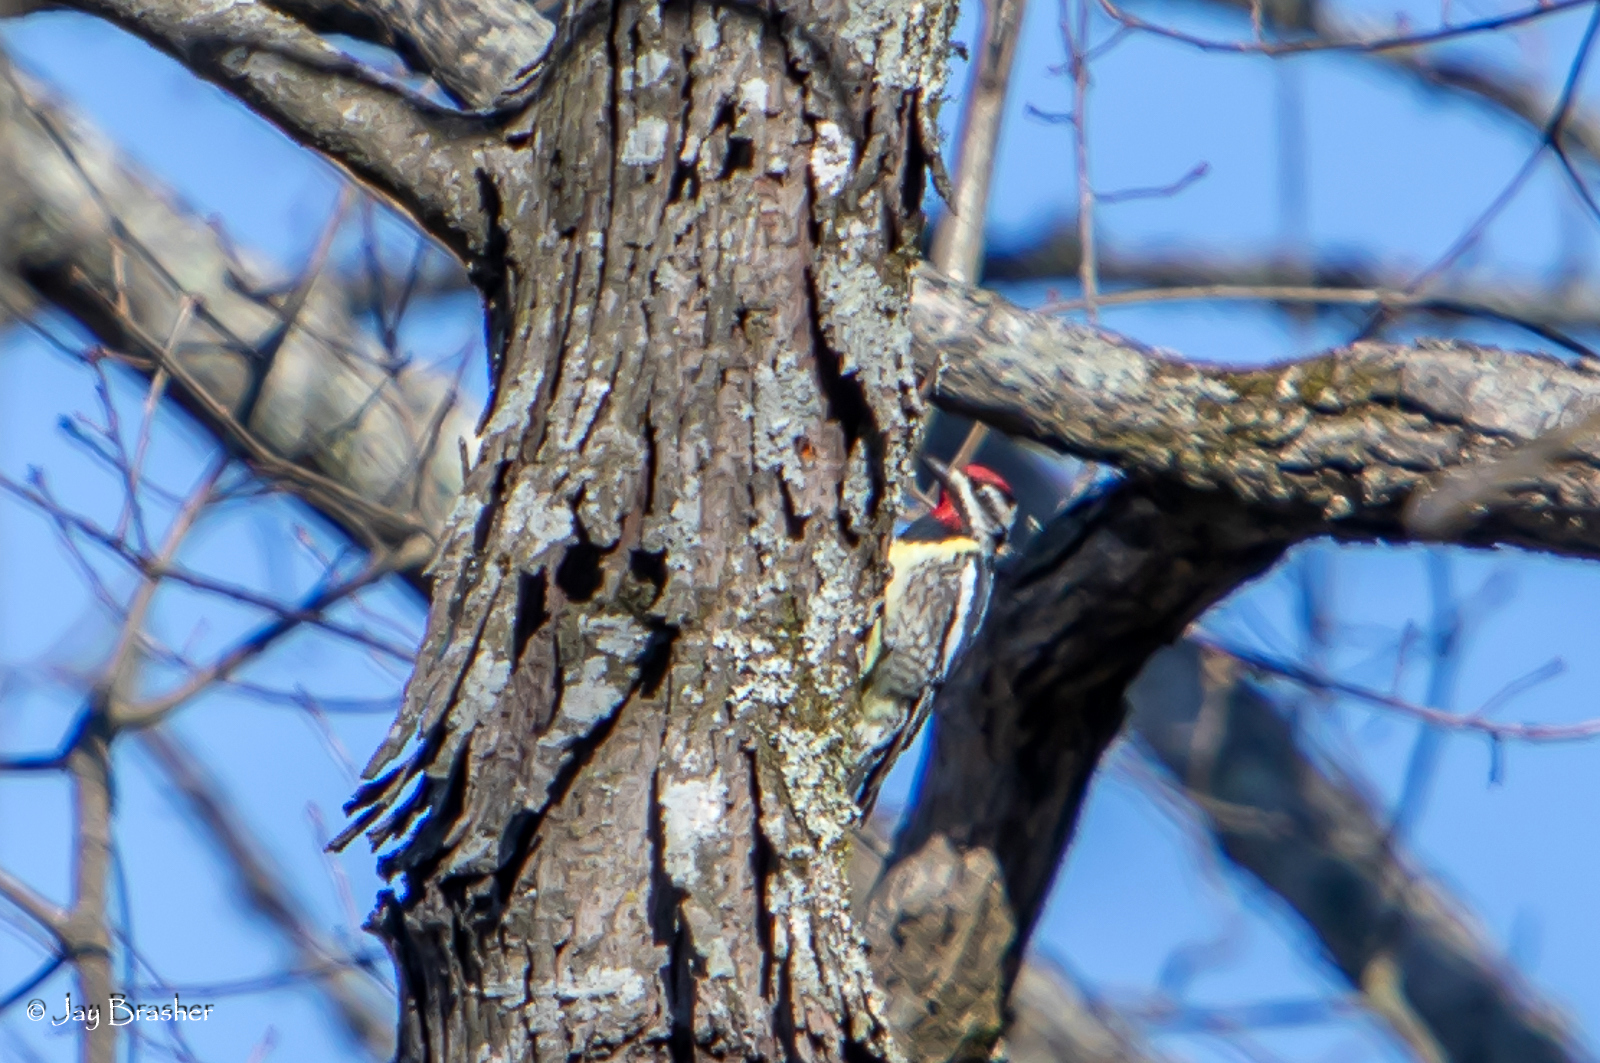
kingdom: Animalia
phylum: Chordata
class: Aves
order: Piciformes
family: Picidae
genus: Sphyrapicus
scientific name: Sphyrapicus varius
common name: Yellow-bellied sapsucker
